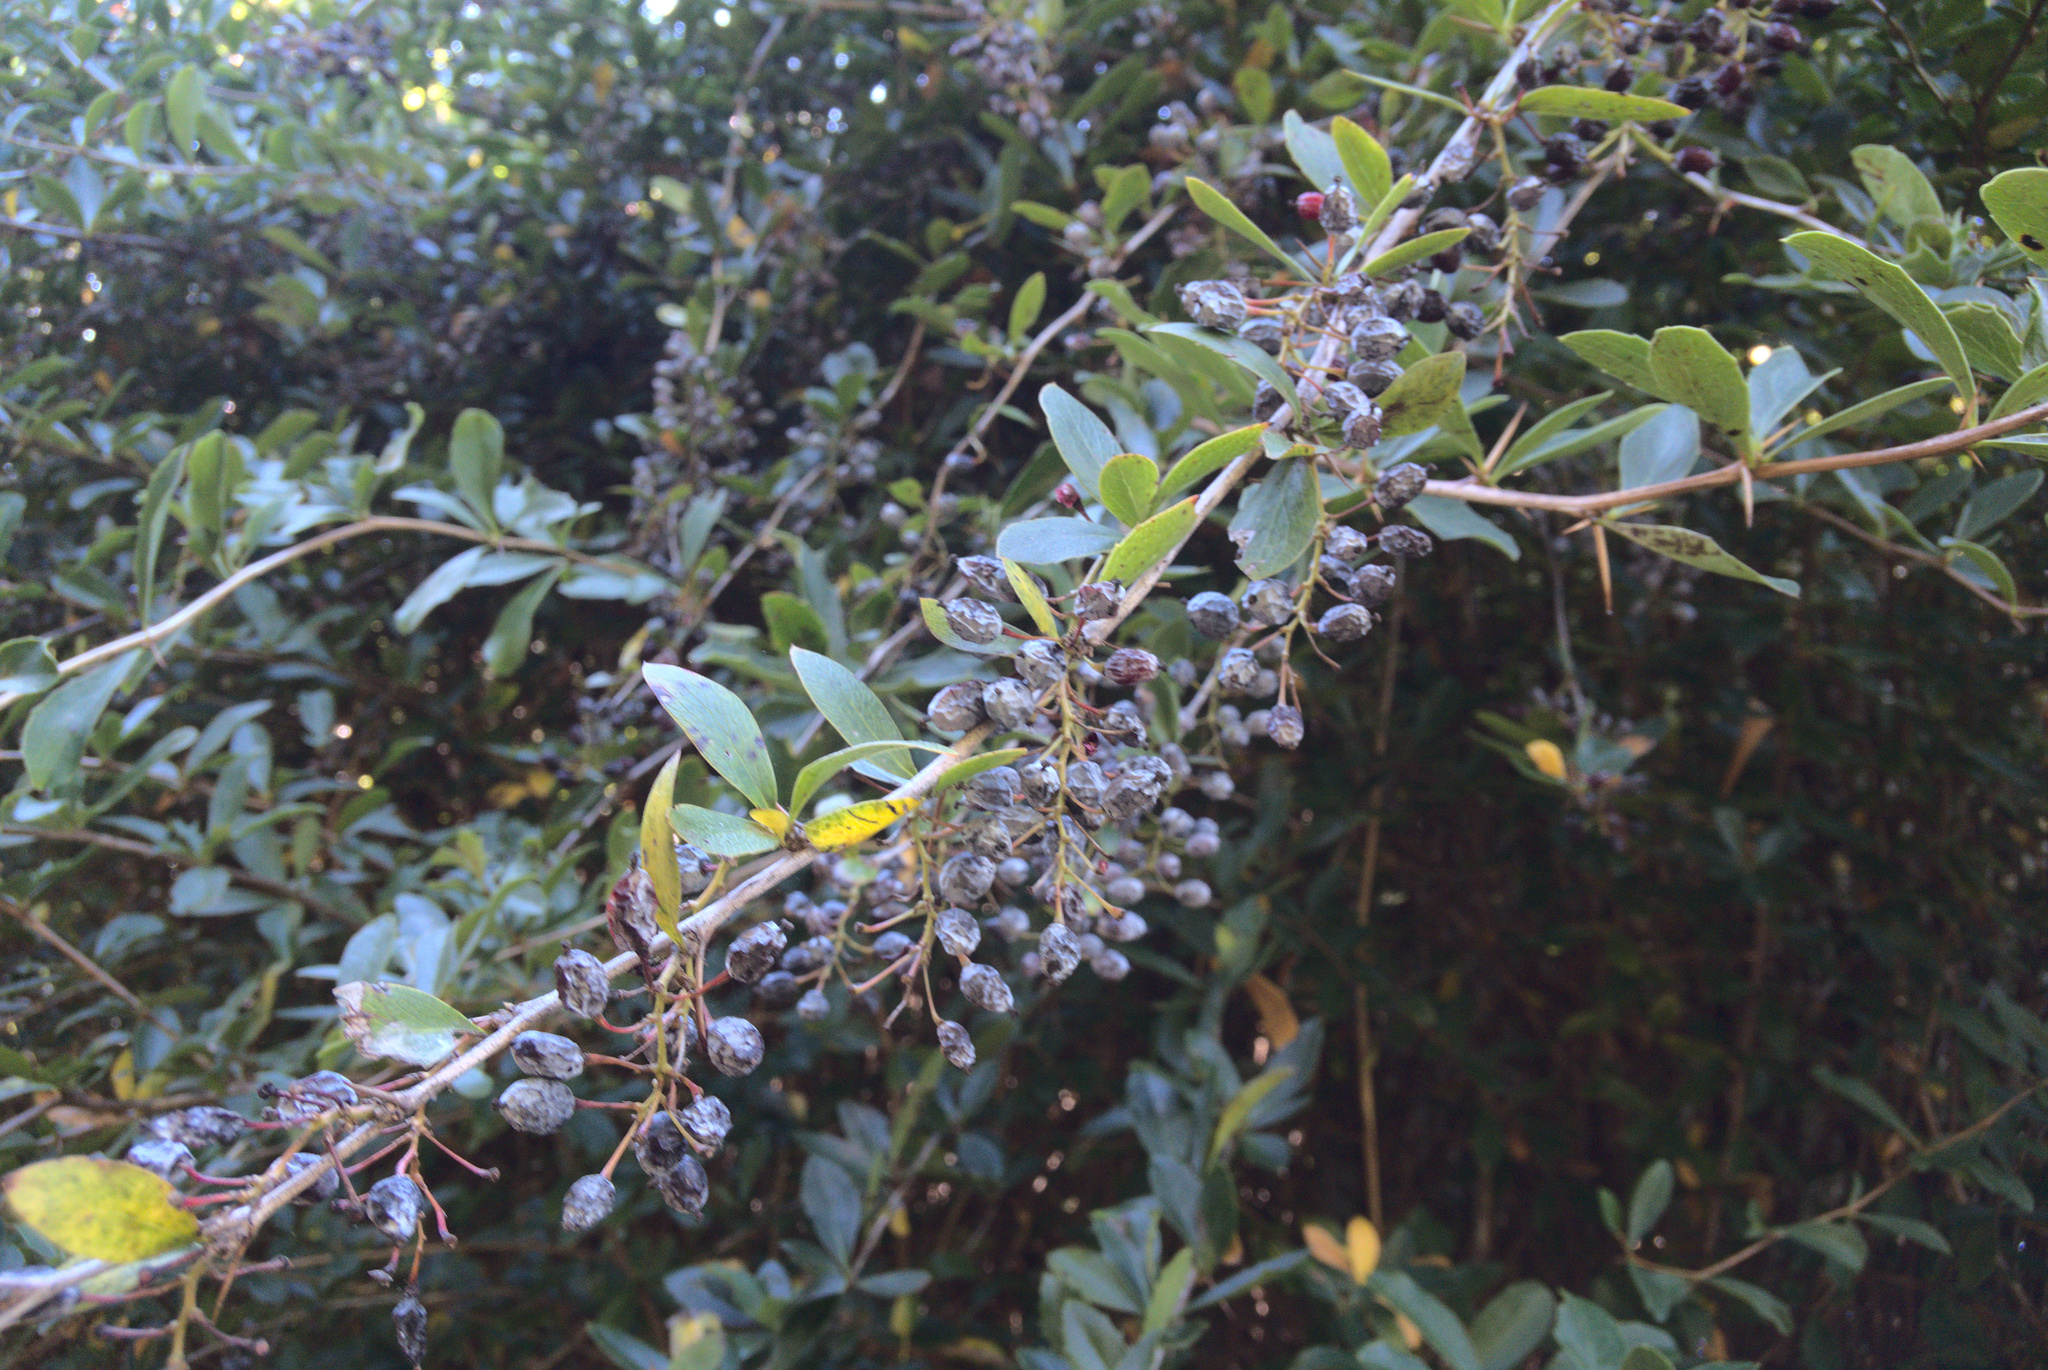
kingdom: Plantae
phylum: Tracheophyta
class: Magnoliopsida
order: Ranunculales
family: Berberidaceae
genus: Berberis
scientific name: Berberis glaucocarpa
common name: Great barberry
